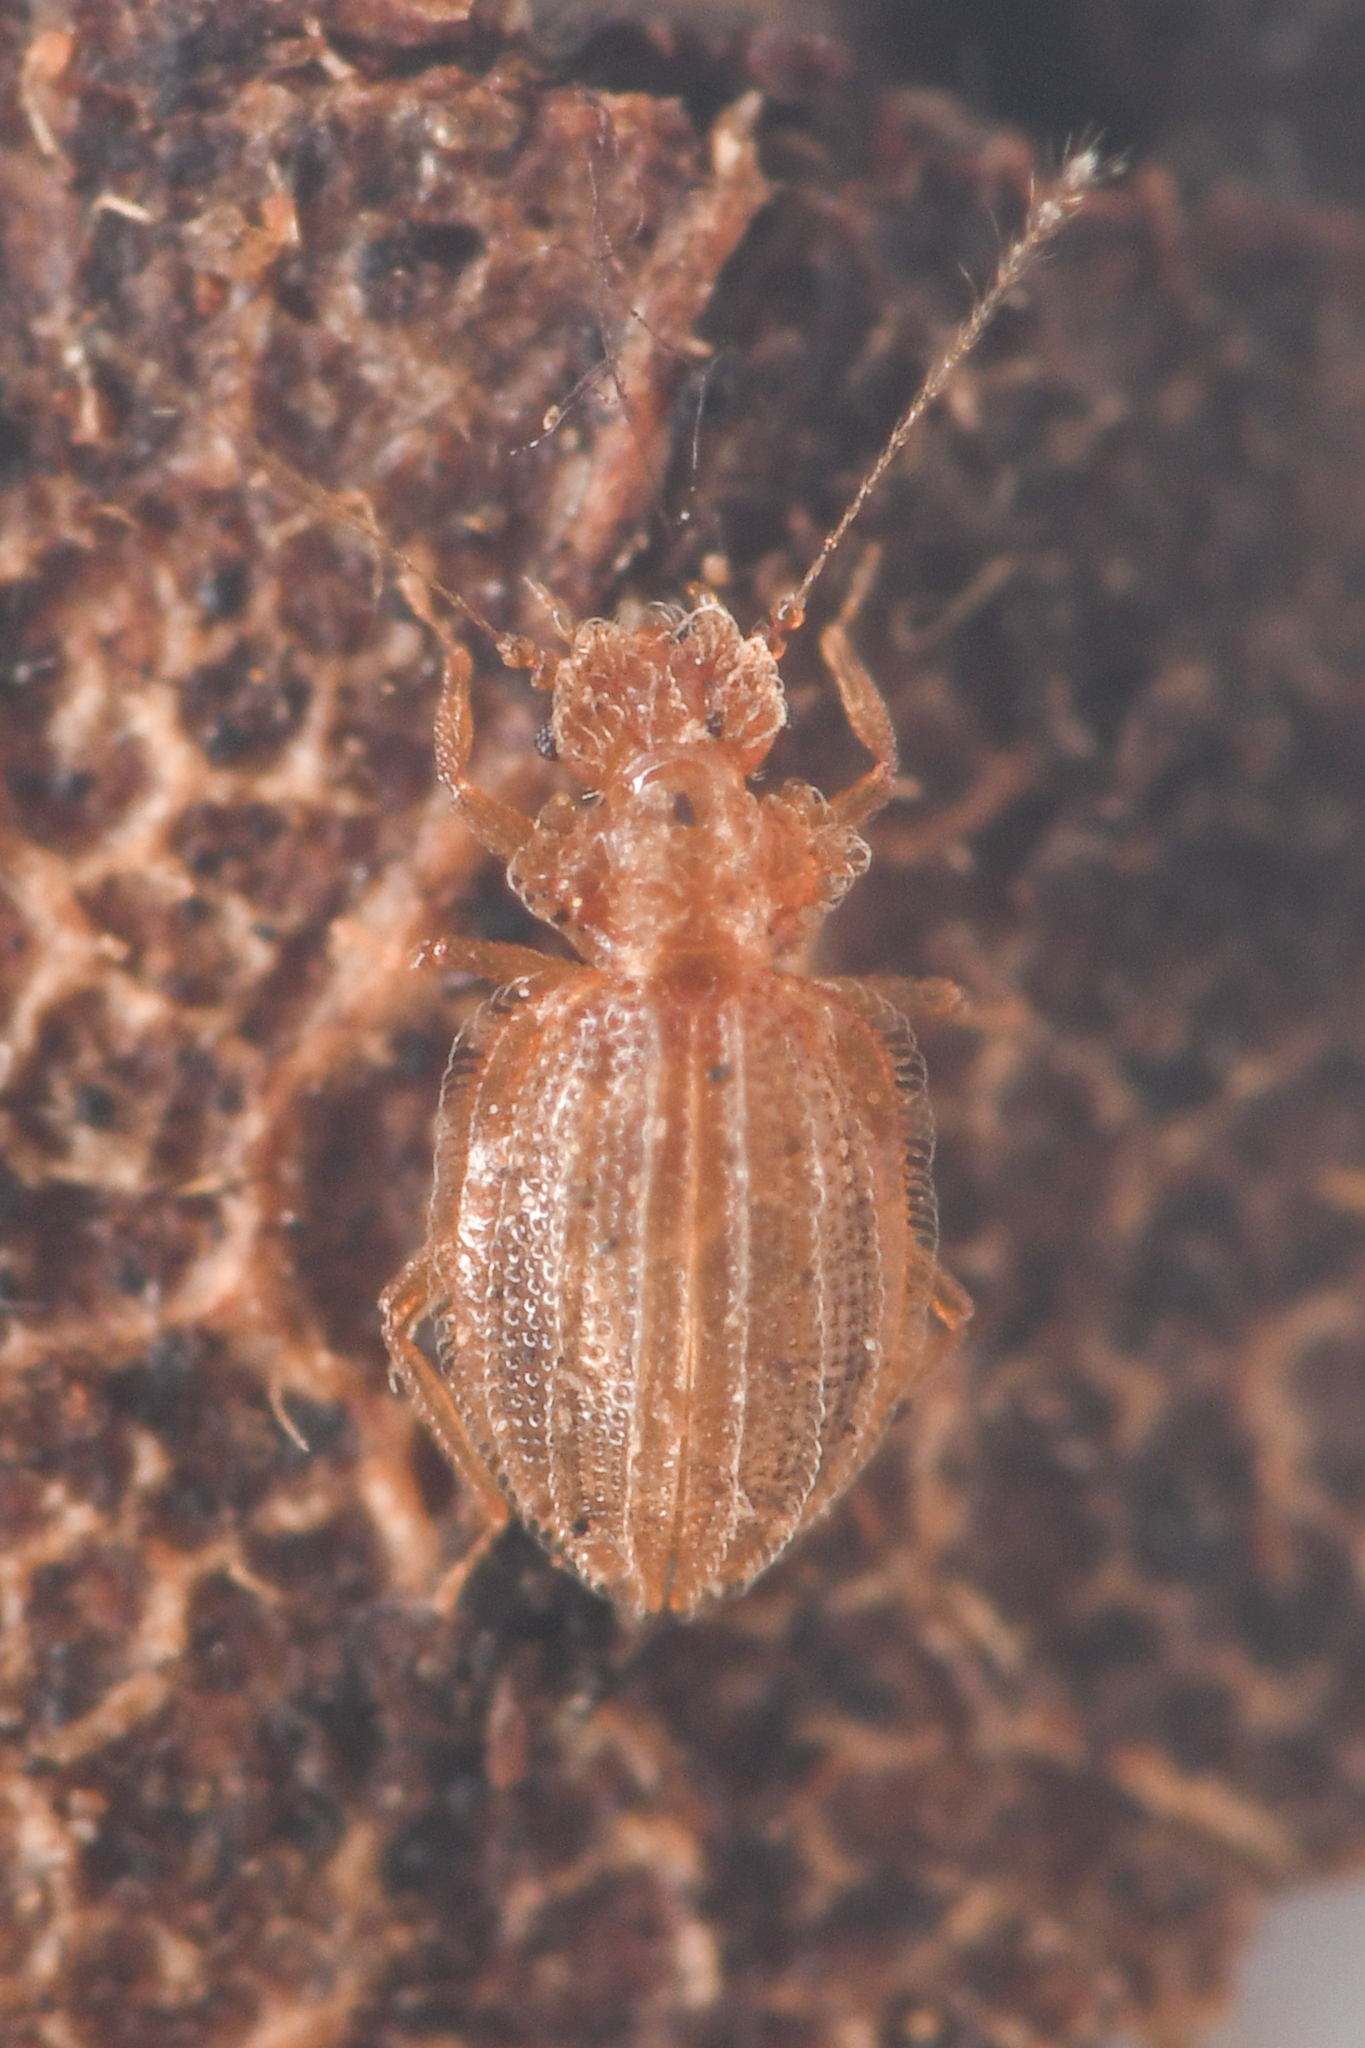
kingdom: Animalia
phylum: Arthropoda
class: Insecta
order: Coleoptera
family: Staphylinidae
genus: Dasycerus
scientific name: Dasycerus angulicollis
